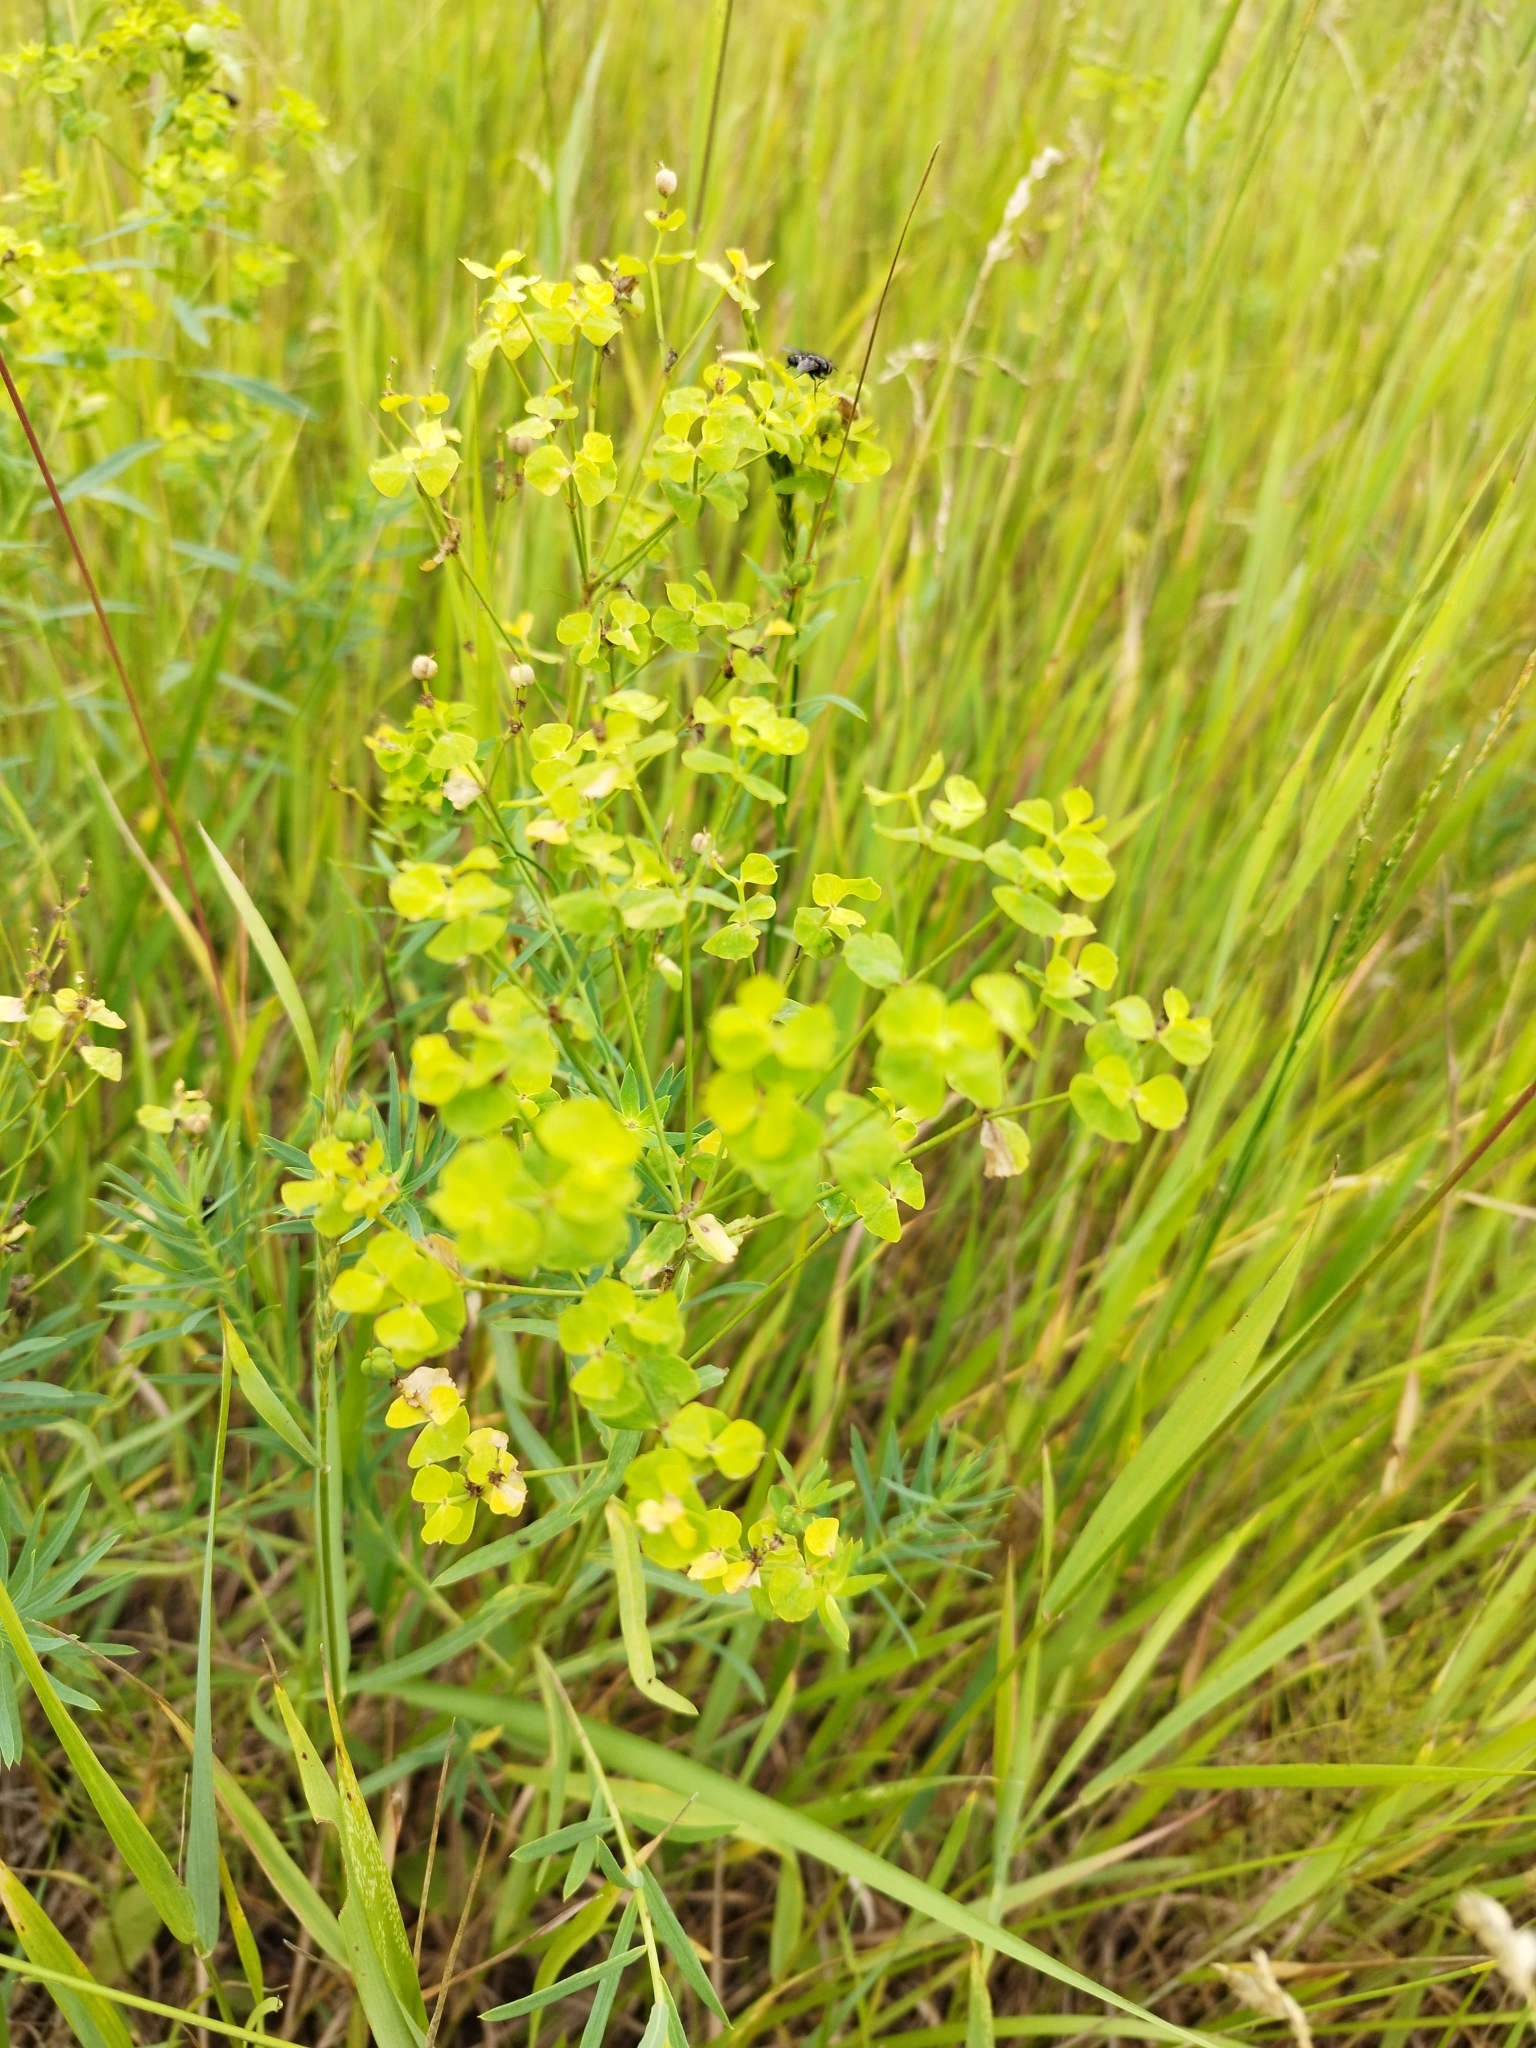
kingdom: Plantae
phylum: Tracheophyta
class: Magnoliopsida
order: Malpighiales
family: Euphorbiaceae
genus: Euphorbia
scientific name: Euphorbia virgata
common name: Leafy spurge
